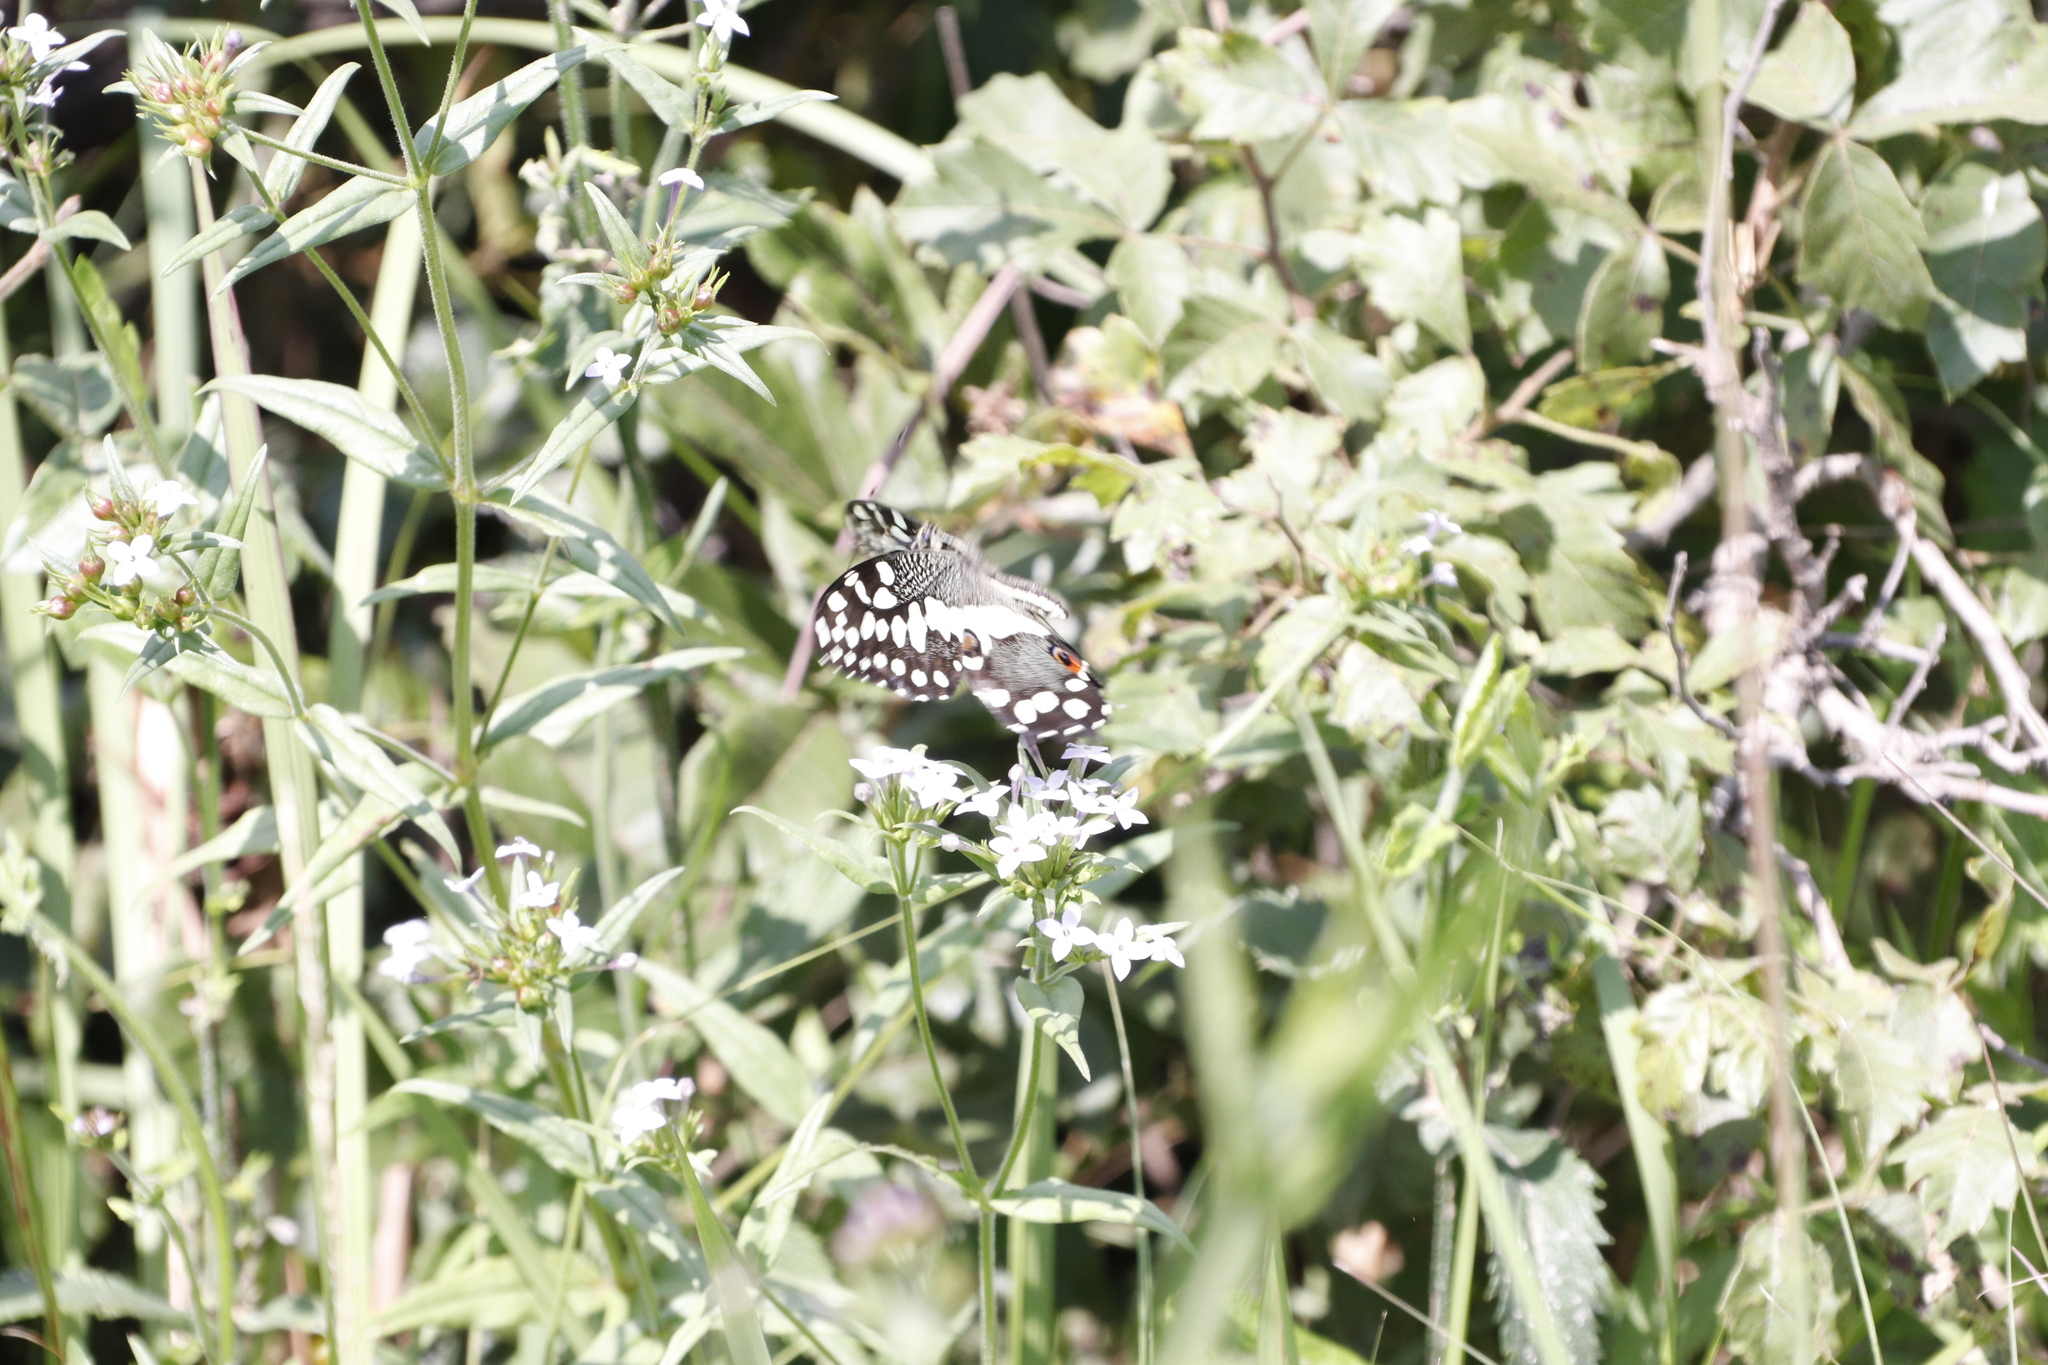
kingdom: Animalia
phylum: Arthropoda
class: Insecta
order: Lepidoptera
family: Papilionidae
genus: Papilio
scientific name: Papilio demodocus
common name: Christmas butterfly
